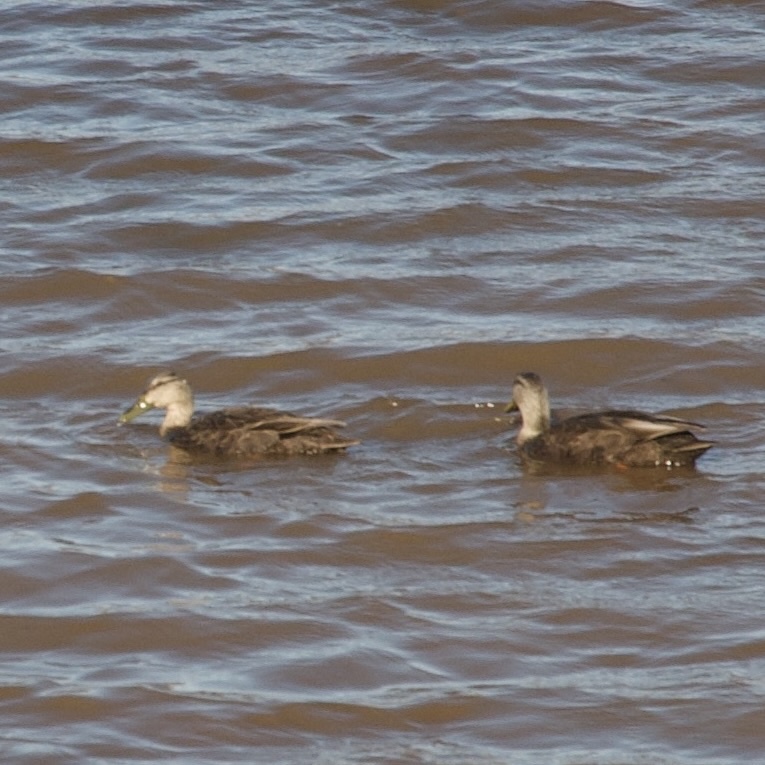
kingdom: Animalia
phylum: Chordata
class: Aves
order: Anseriformes
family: Anatidae
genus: Anas
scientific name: Anas rubripes
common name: American black duck
